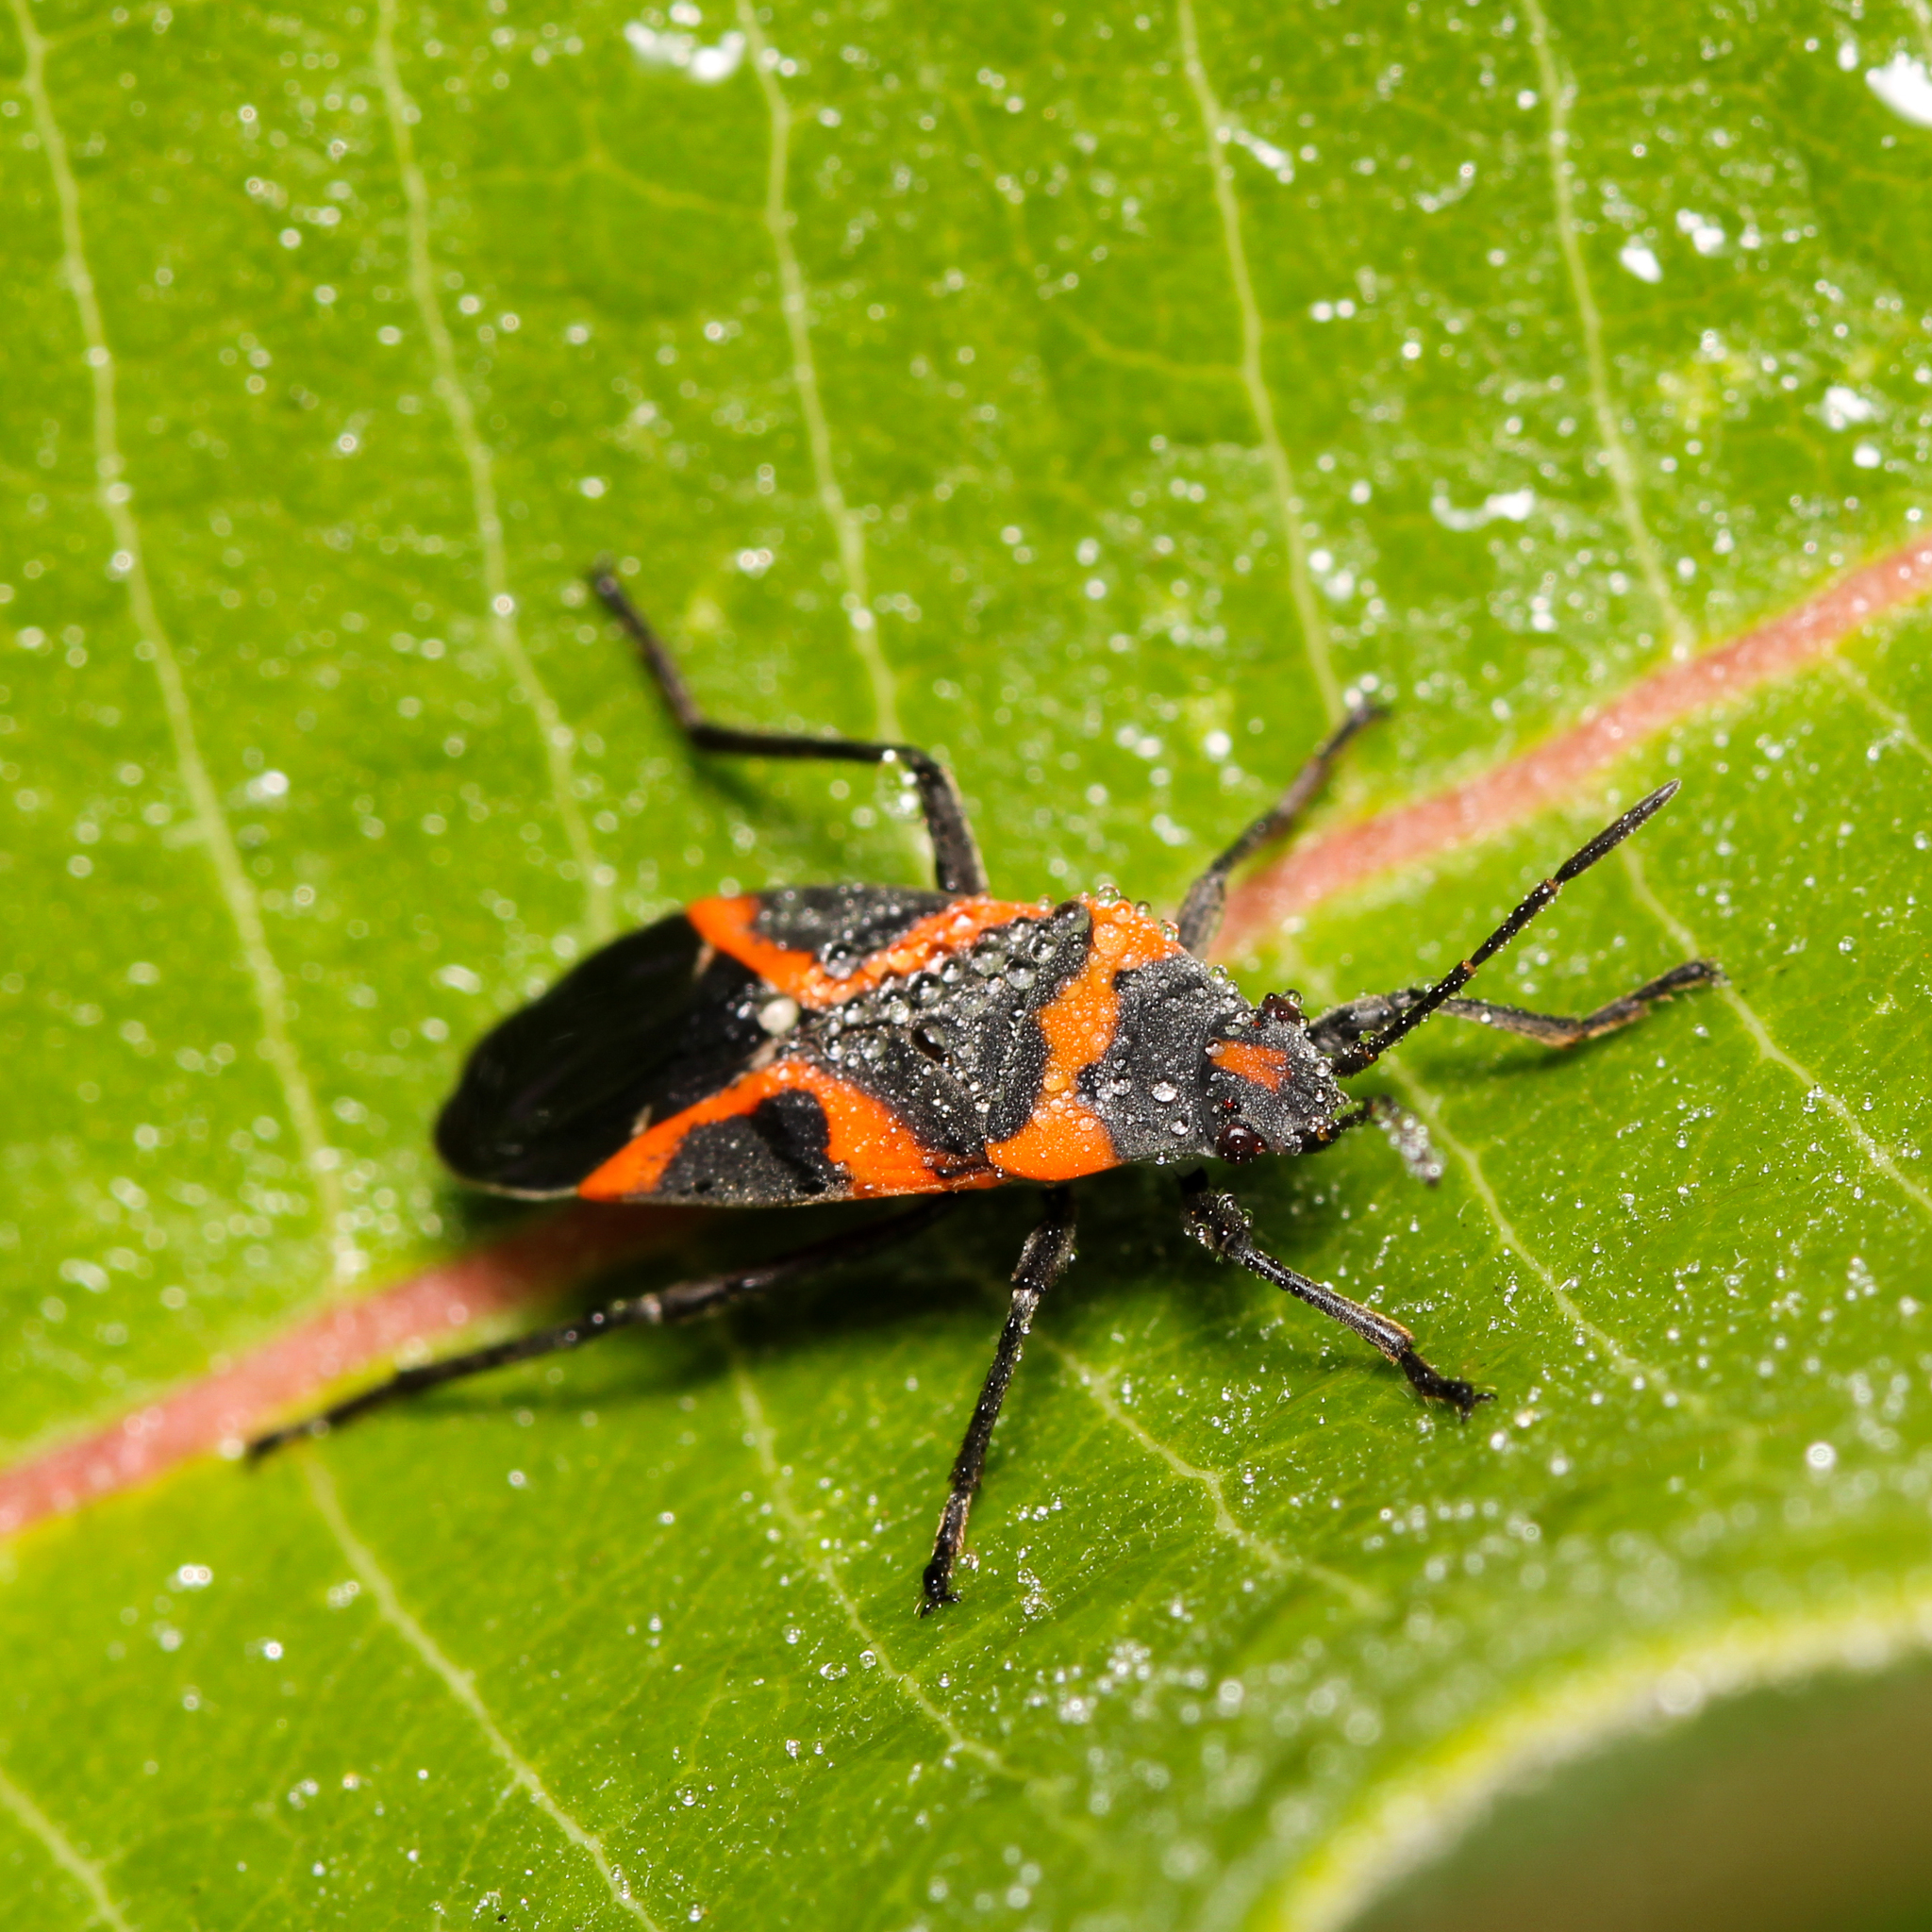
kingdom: Animalia
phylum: Arthropoda
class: Insecta
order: Hemiptera
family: Lygaeidae
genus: Lygaeus
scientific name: Lygaeus kalmii
